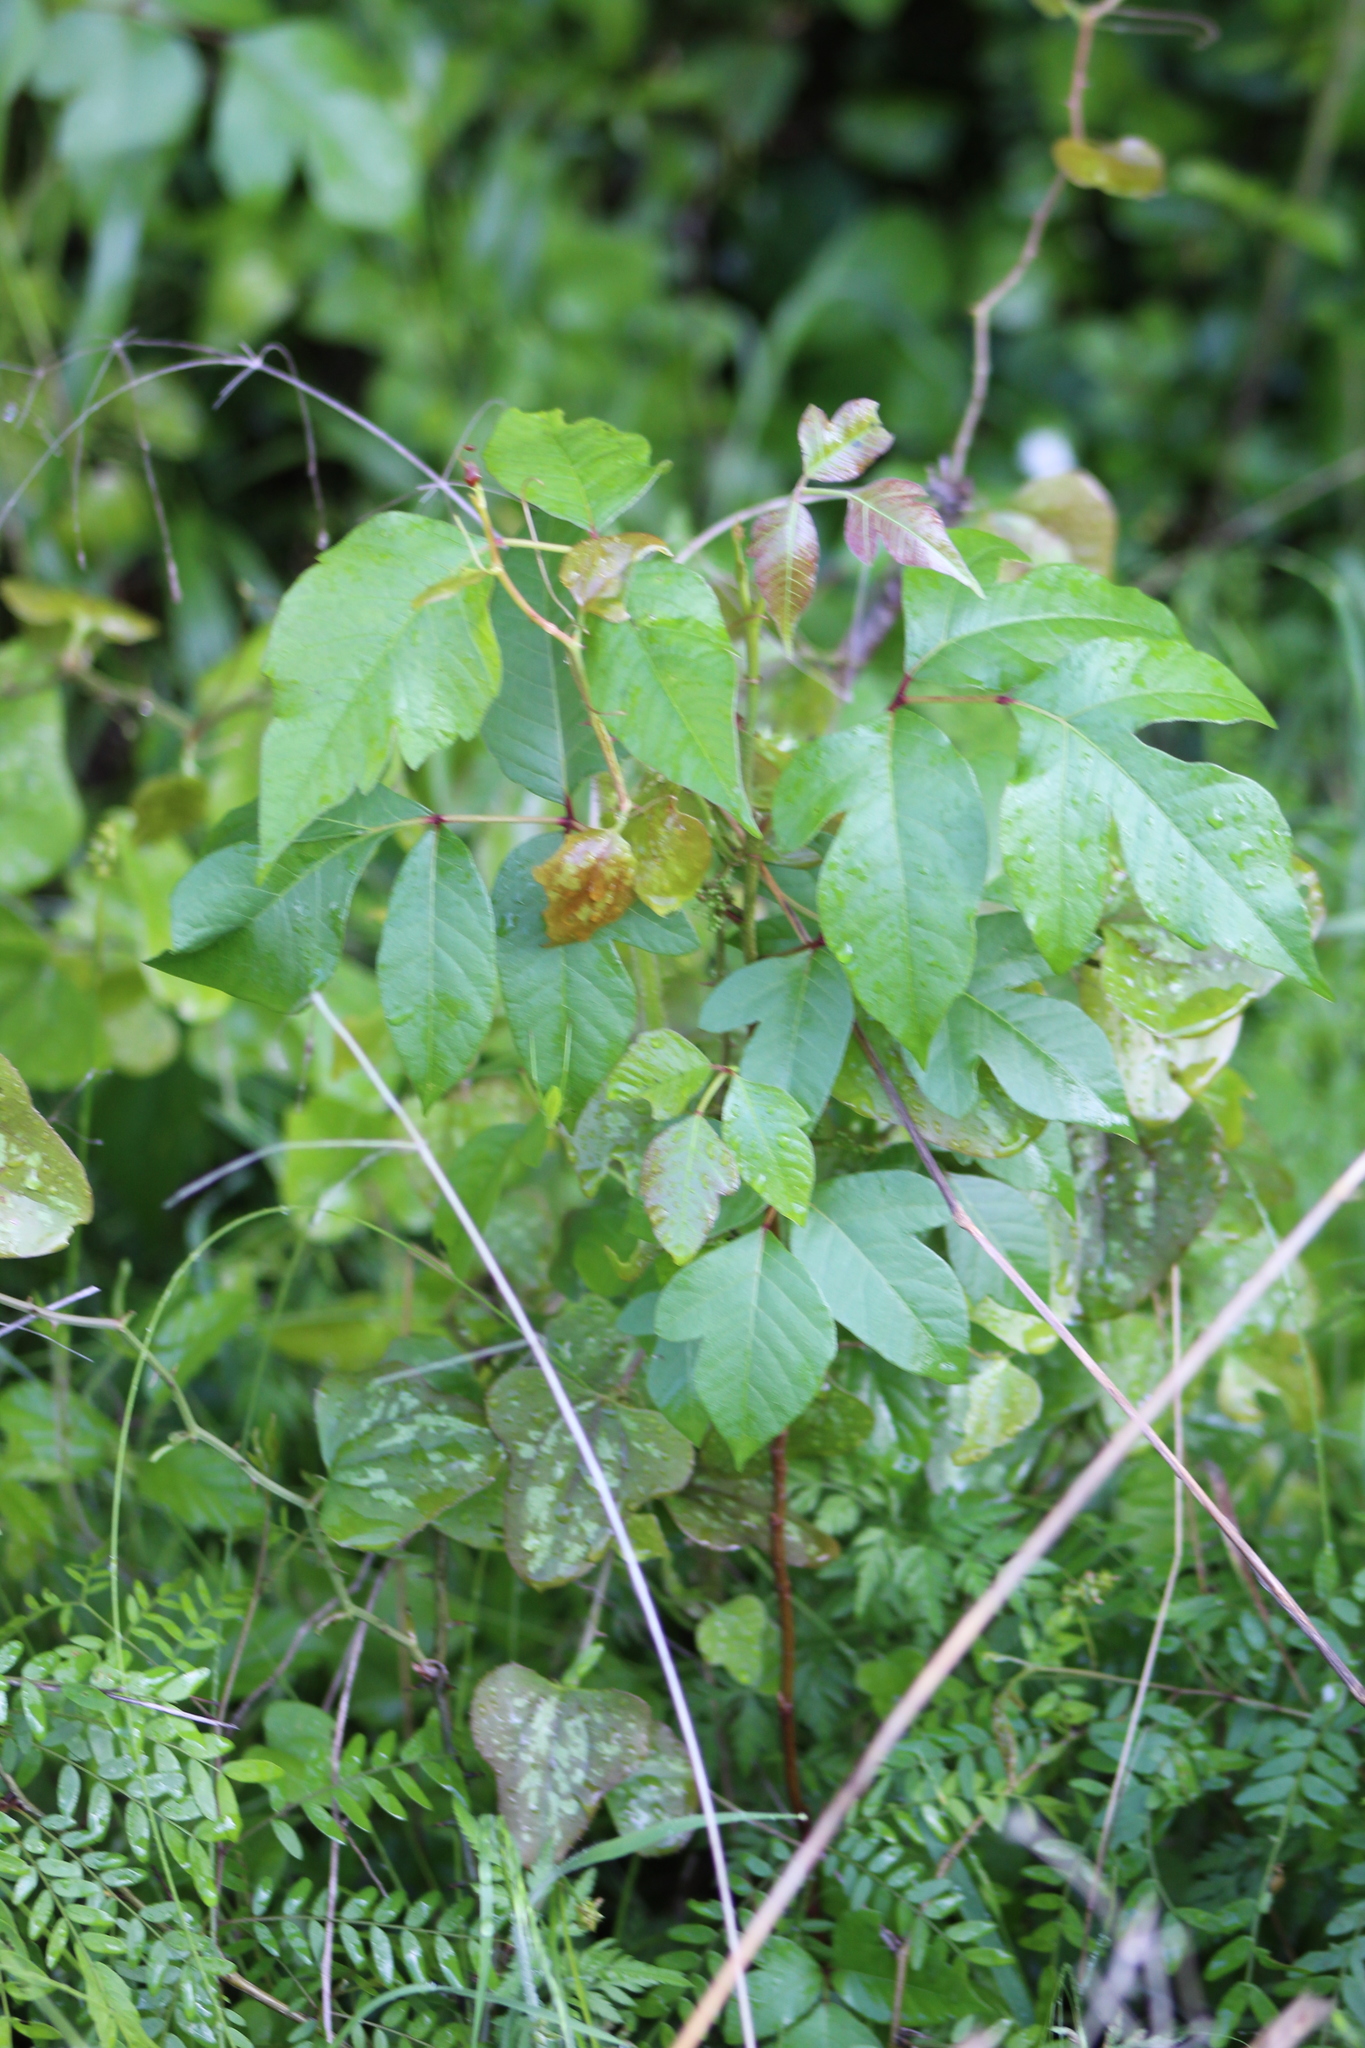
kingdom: Plantae
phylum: Tracheophyta
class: Magnoliopsida
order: Sapindales
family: Anacardiaceae
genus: Toxicodendron
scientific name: Toxicodendron radicans
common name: Poison ivy
